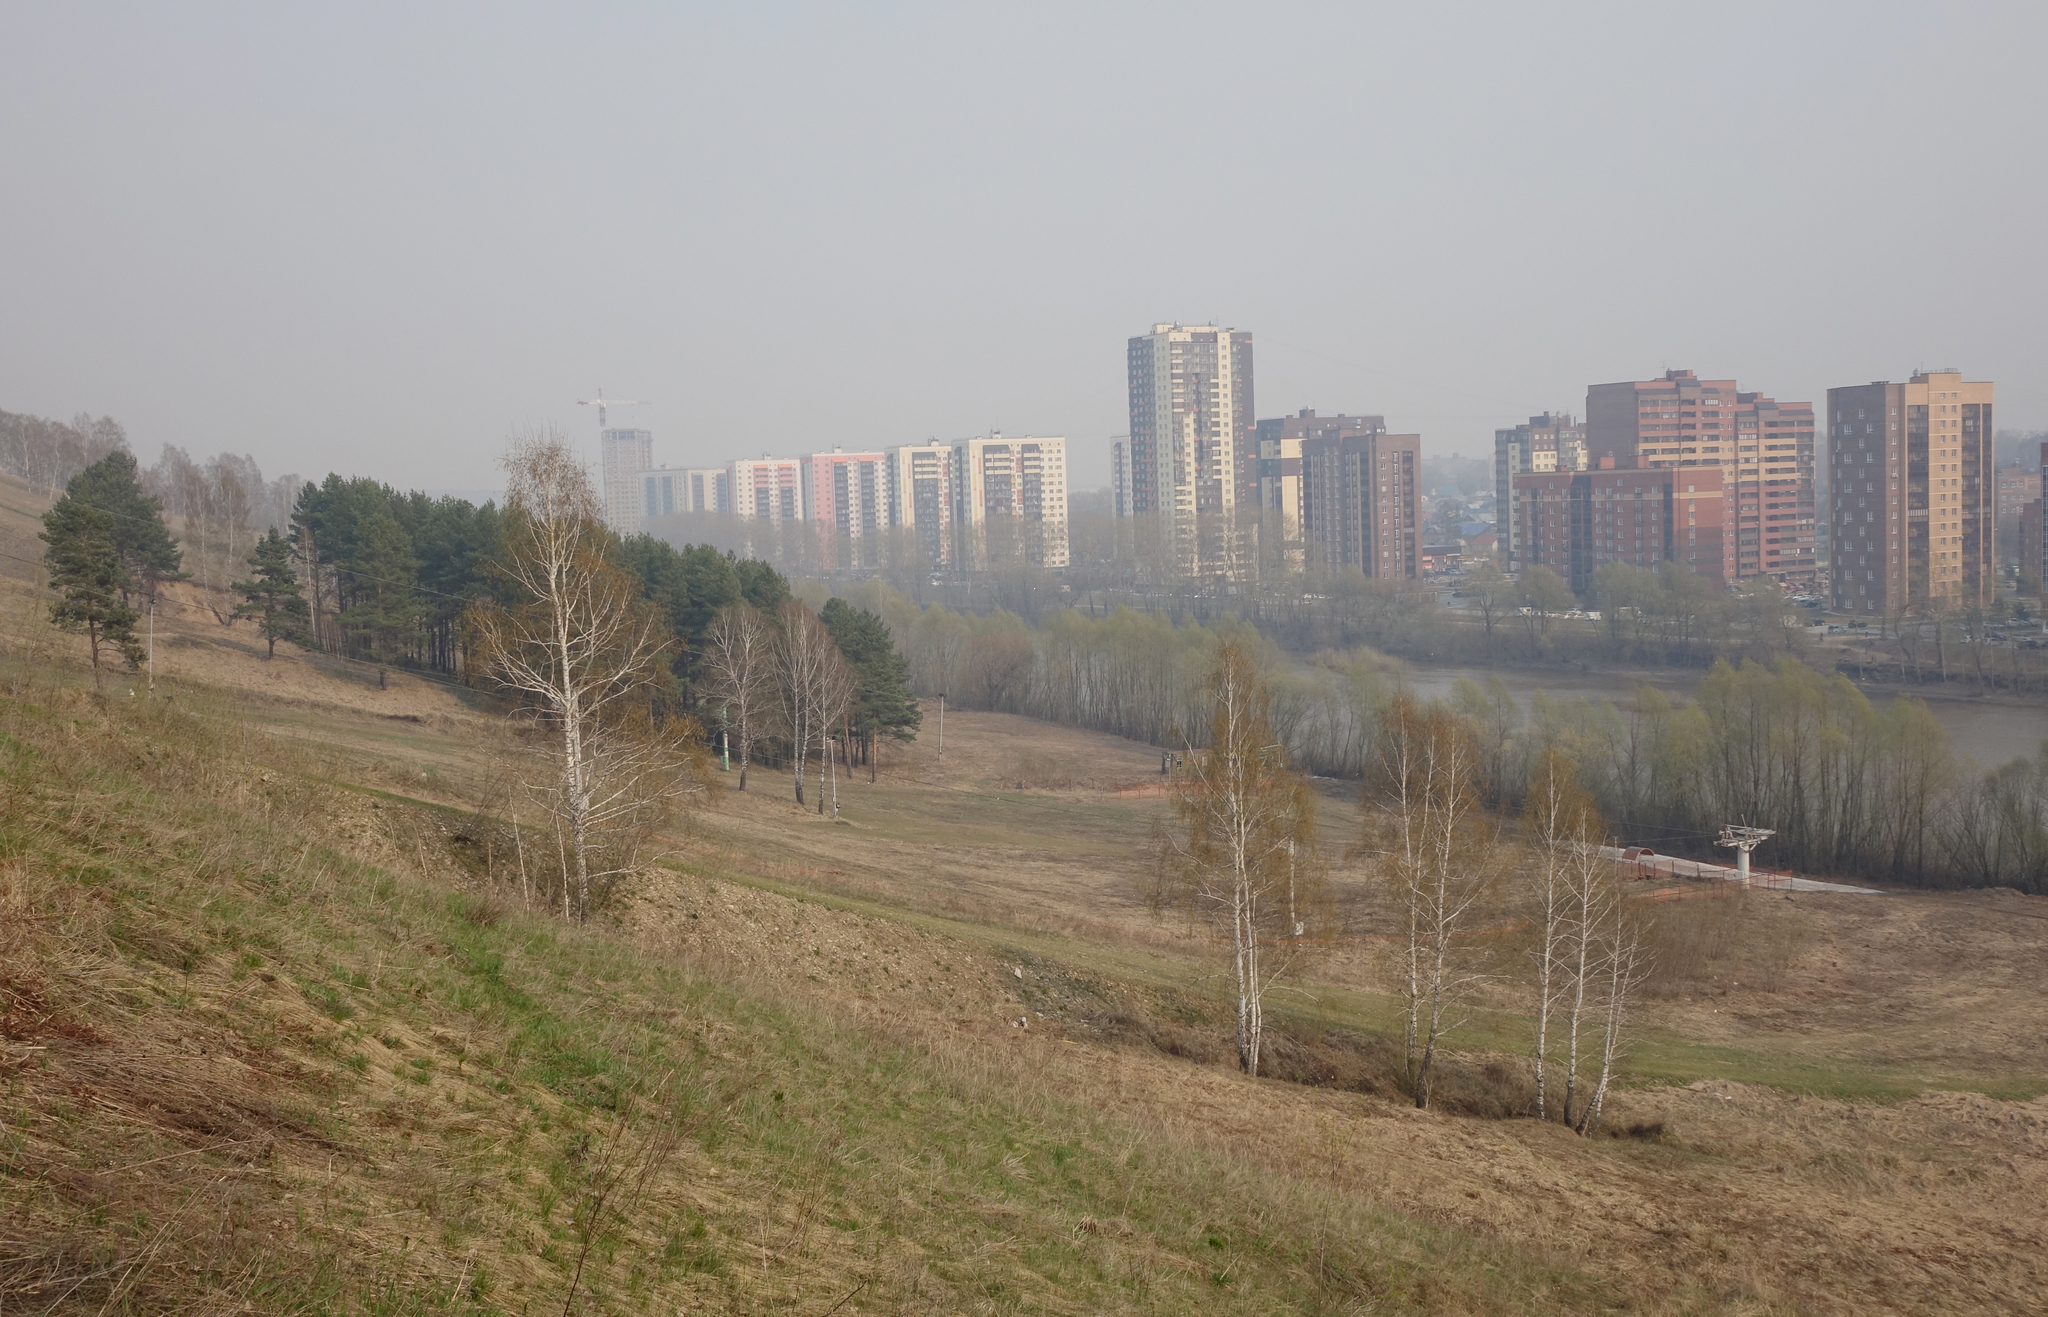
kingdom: Plantae
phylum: Tracheophyta
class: Magnoliopsida
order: Fagales
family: Betulaceae
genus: Betula
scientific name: Betula pendula
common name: Silver birch
